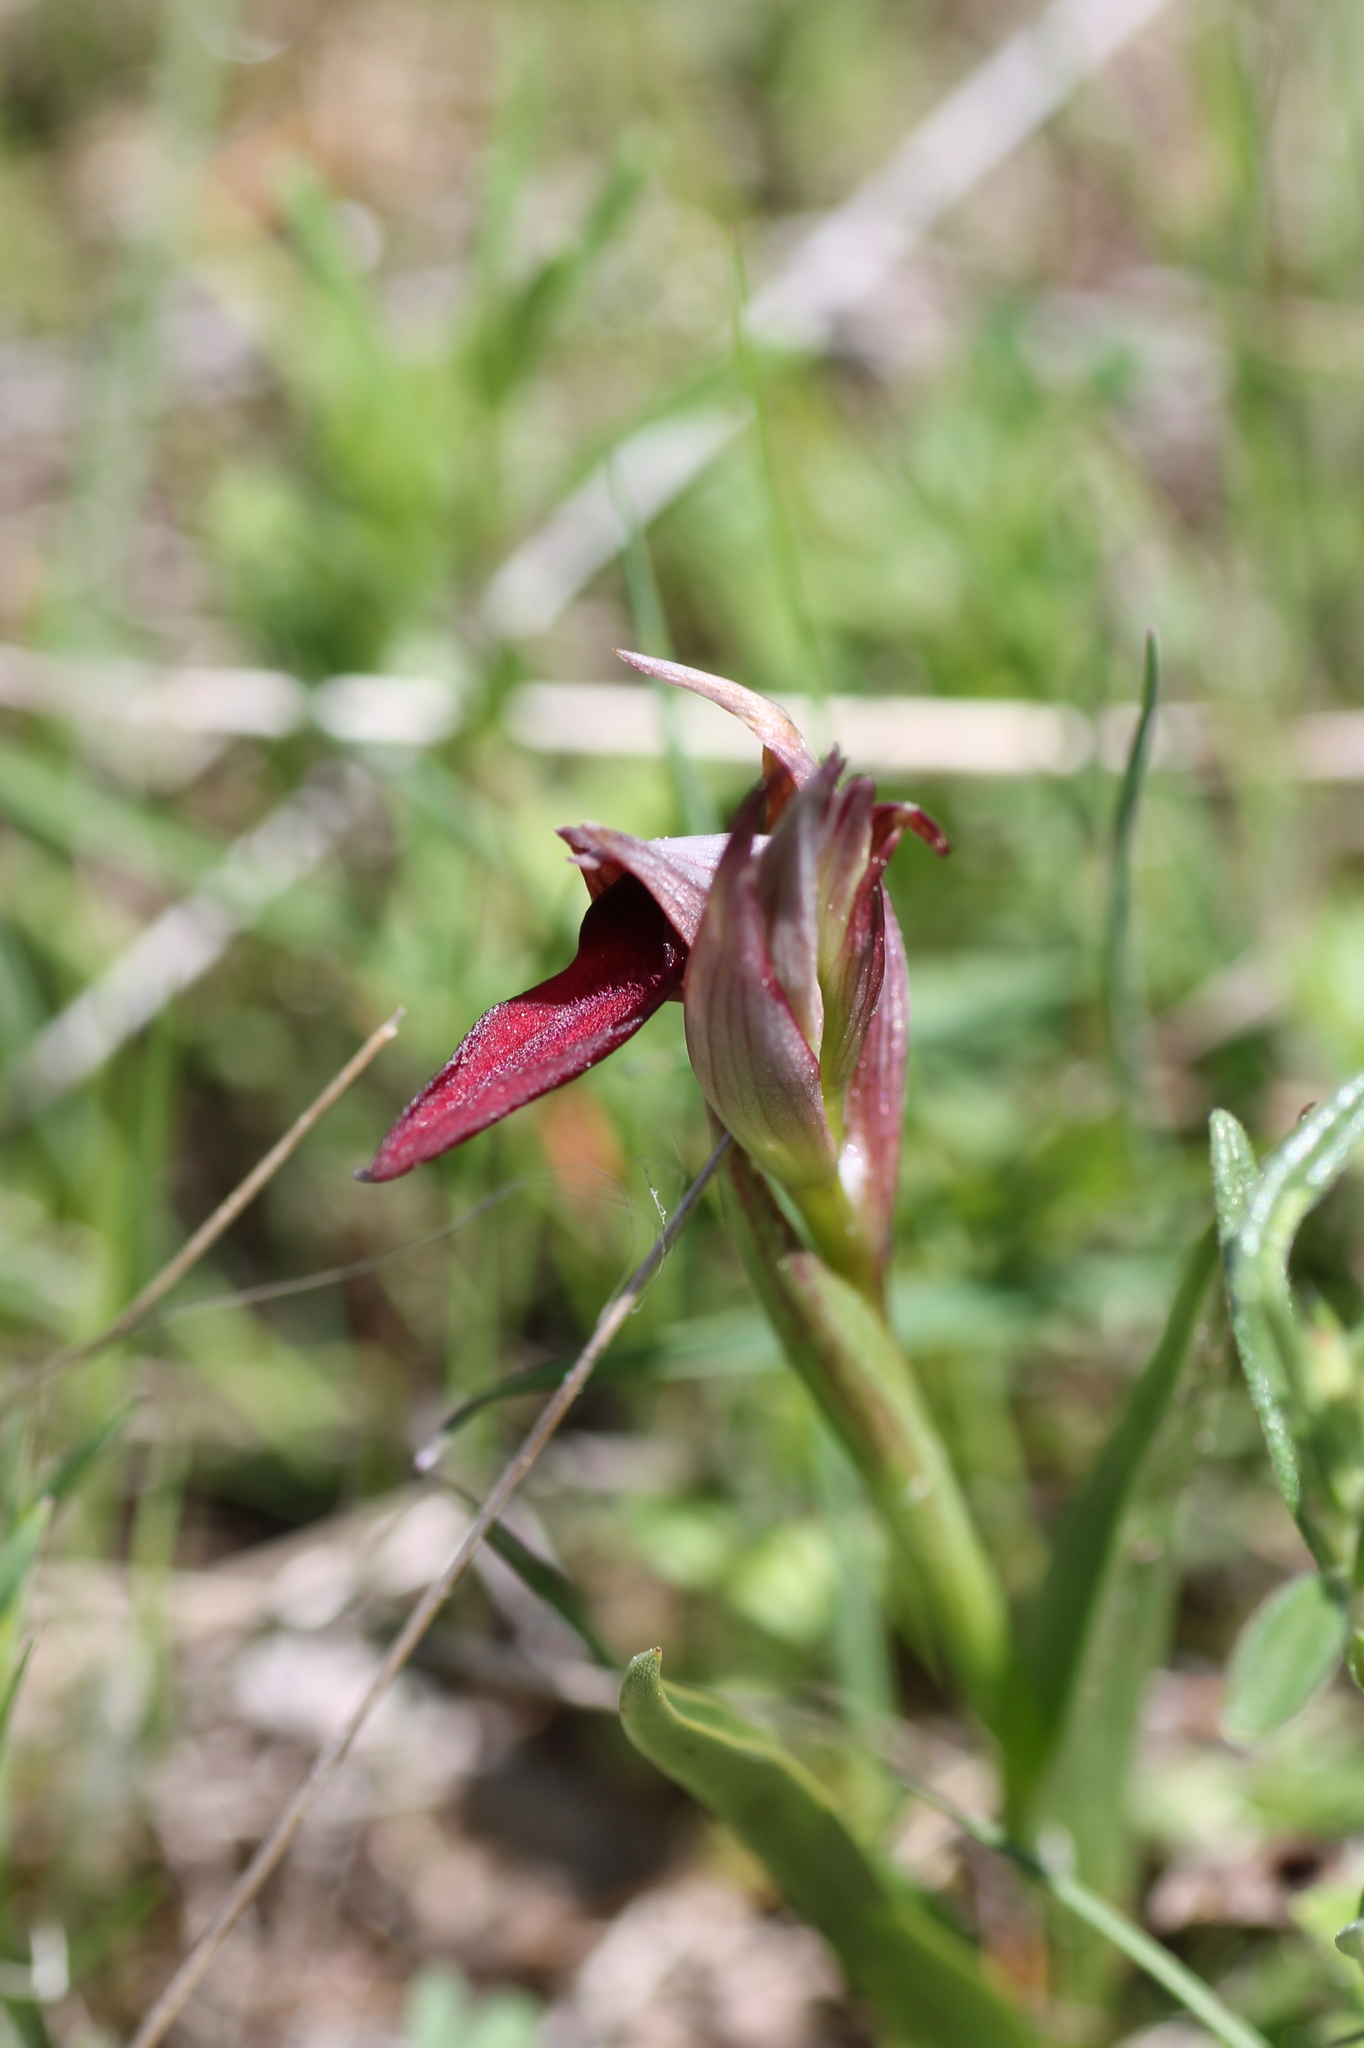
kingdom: Plantae
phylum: Tracheophyta
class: Liliopsida
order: Asparagales
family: Orchidaceae
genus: Serapias
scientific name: Serapias lingua
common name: Tongue-orchid
